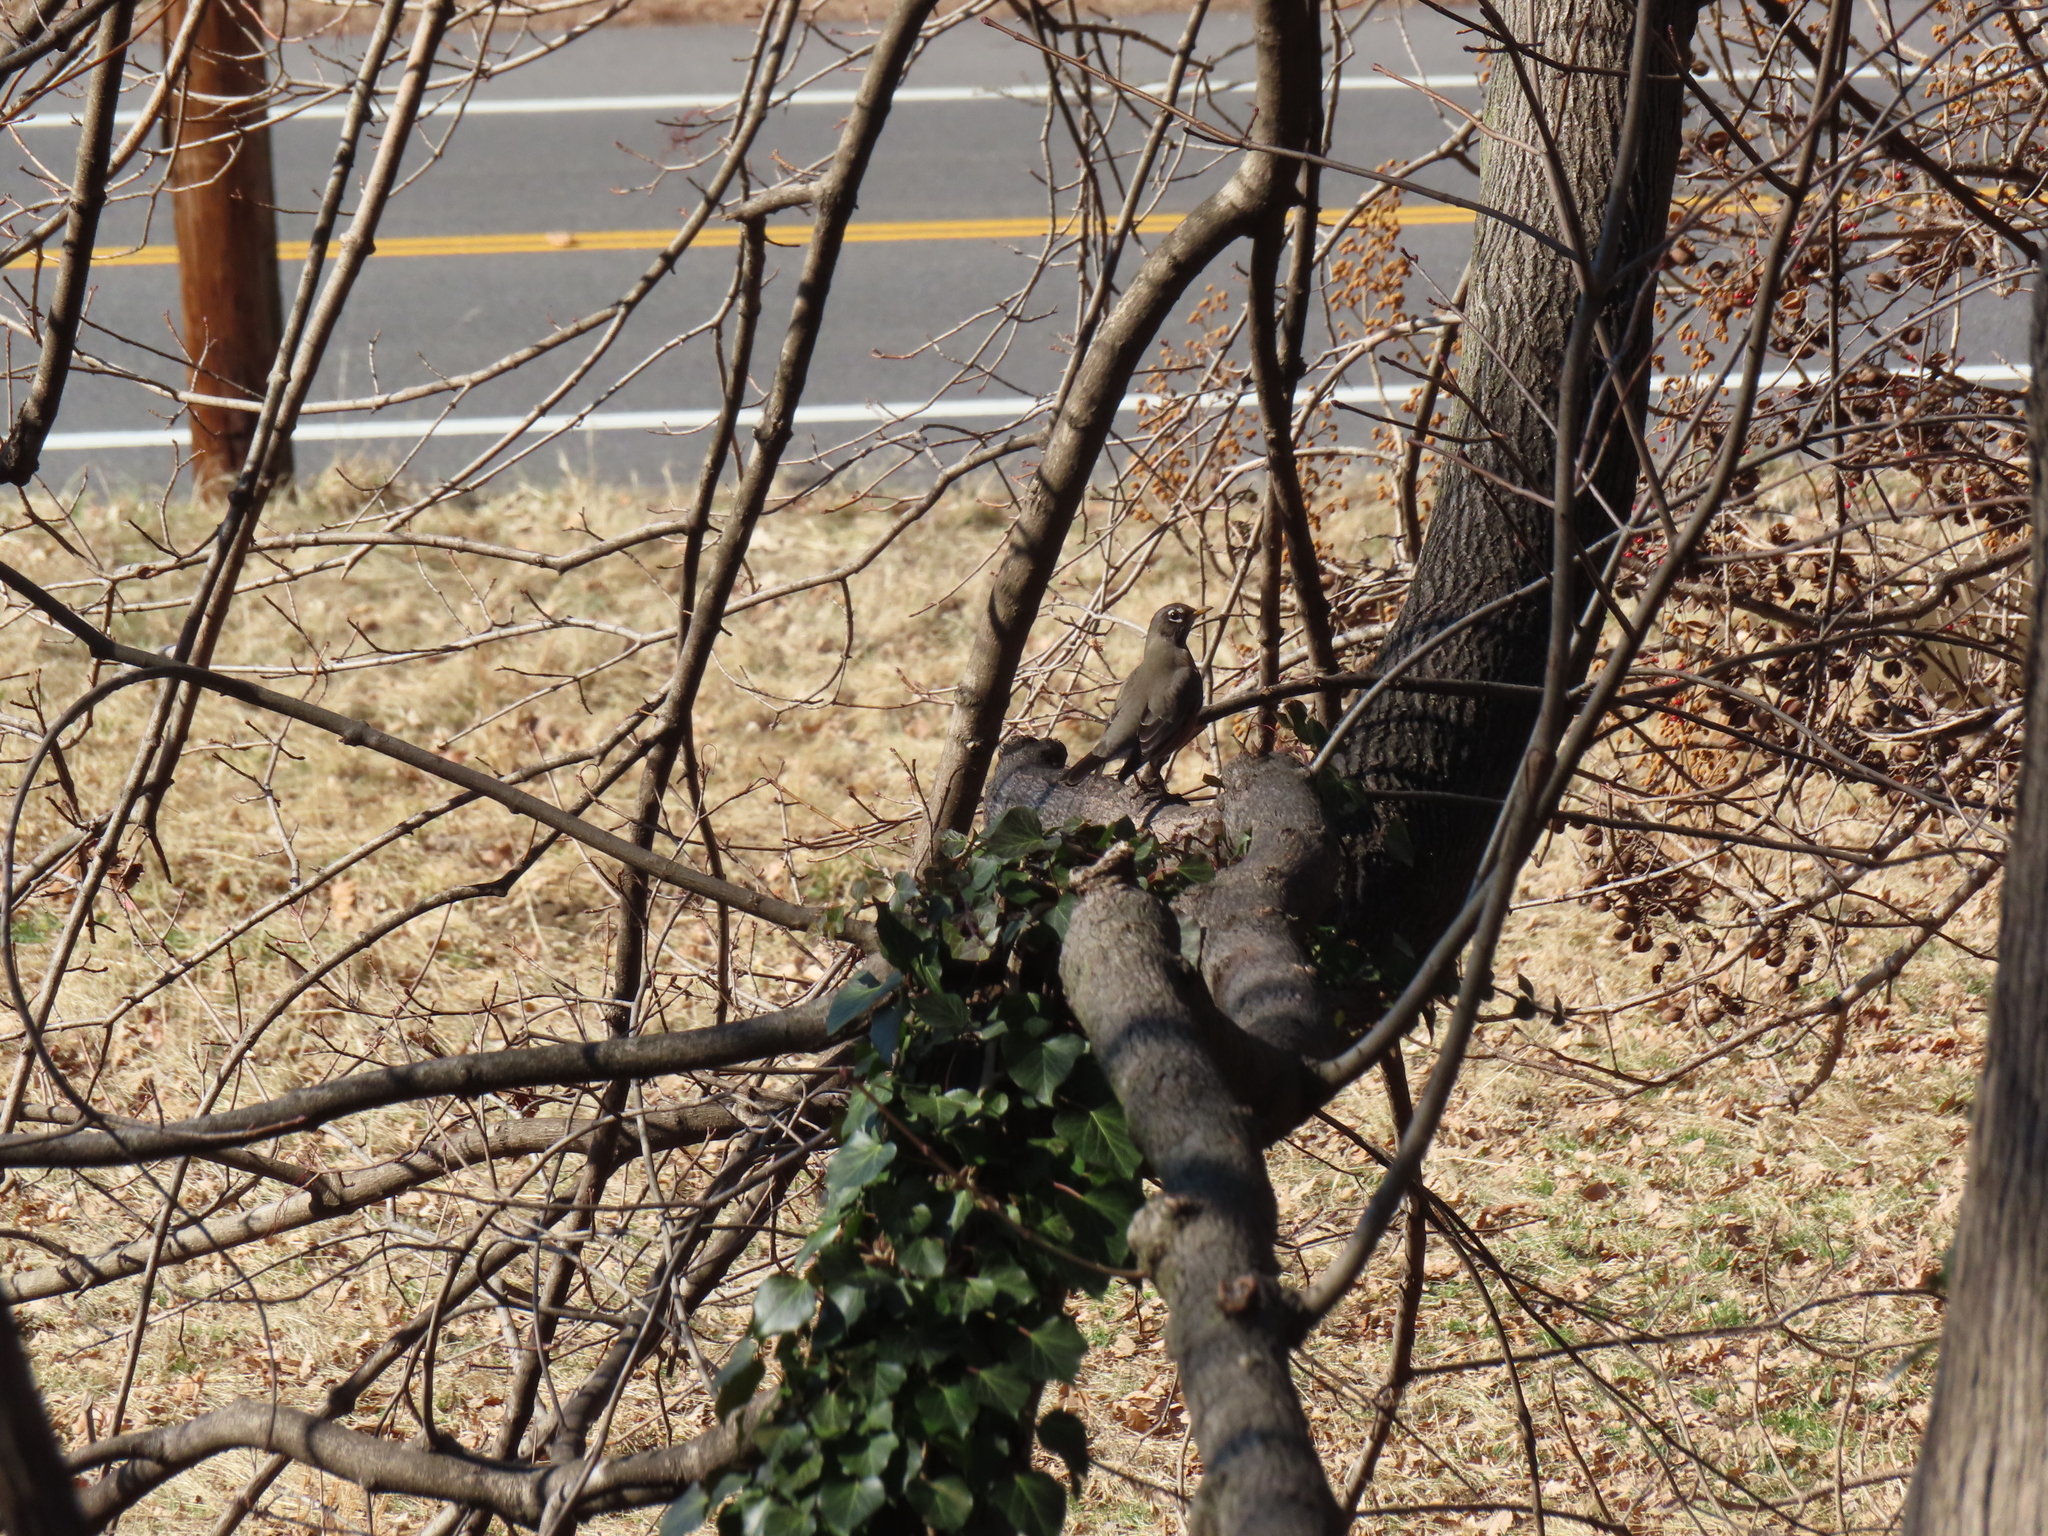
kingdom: Animalia
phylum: Chordata
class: Aves
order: Passeriformes
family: Turdidae
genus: Turdus
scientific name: Turdus migratorius
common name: American robin
